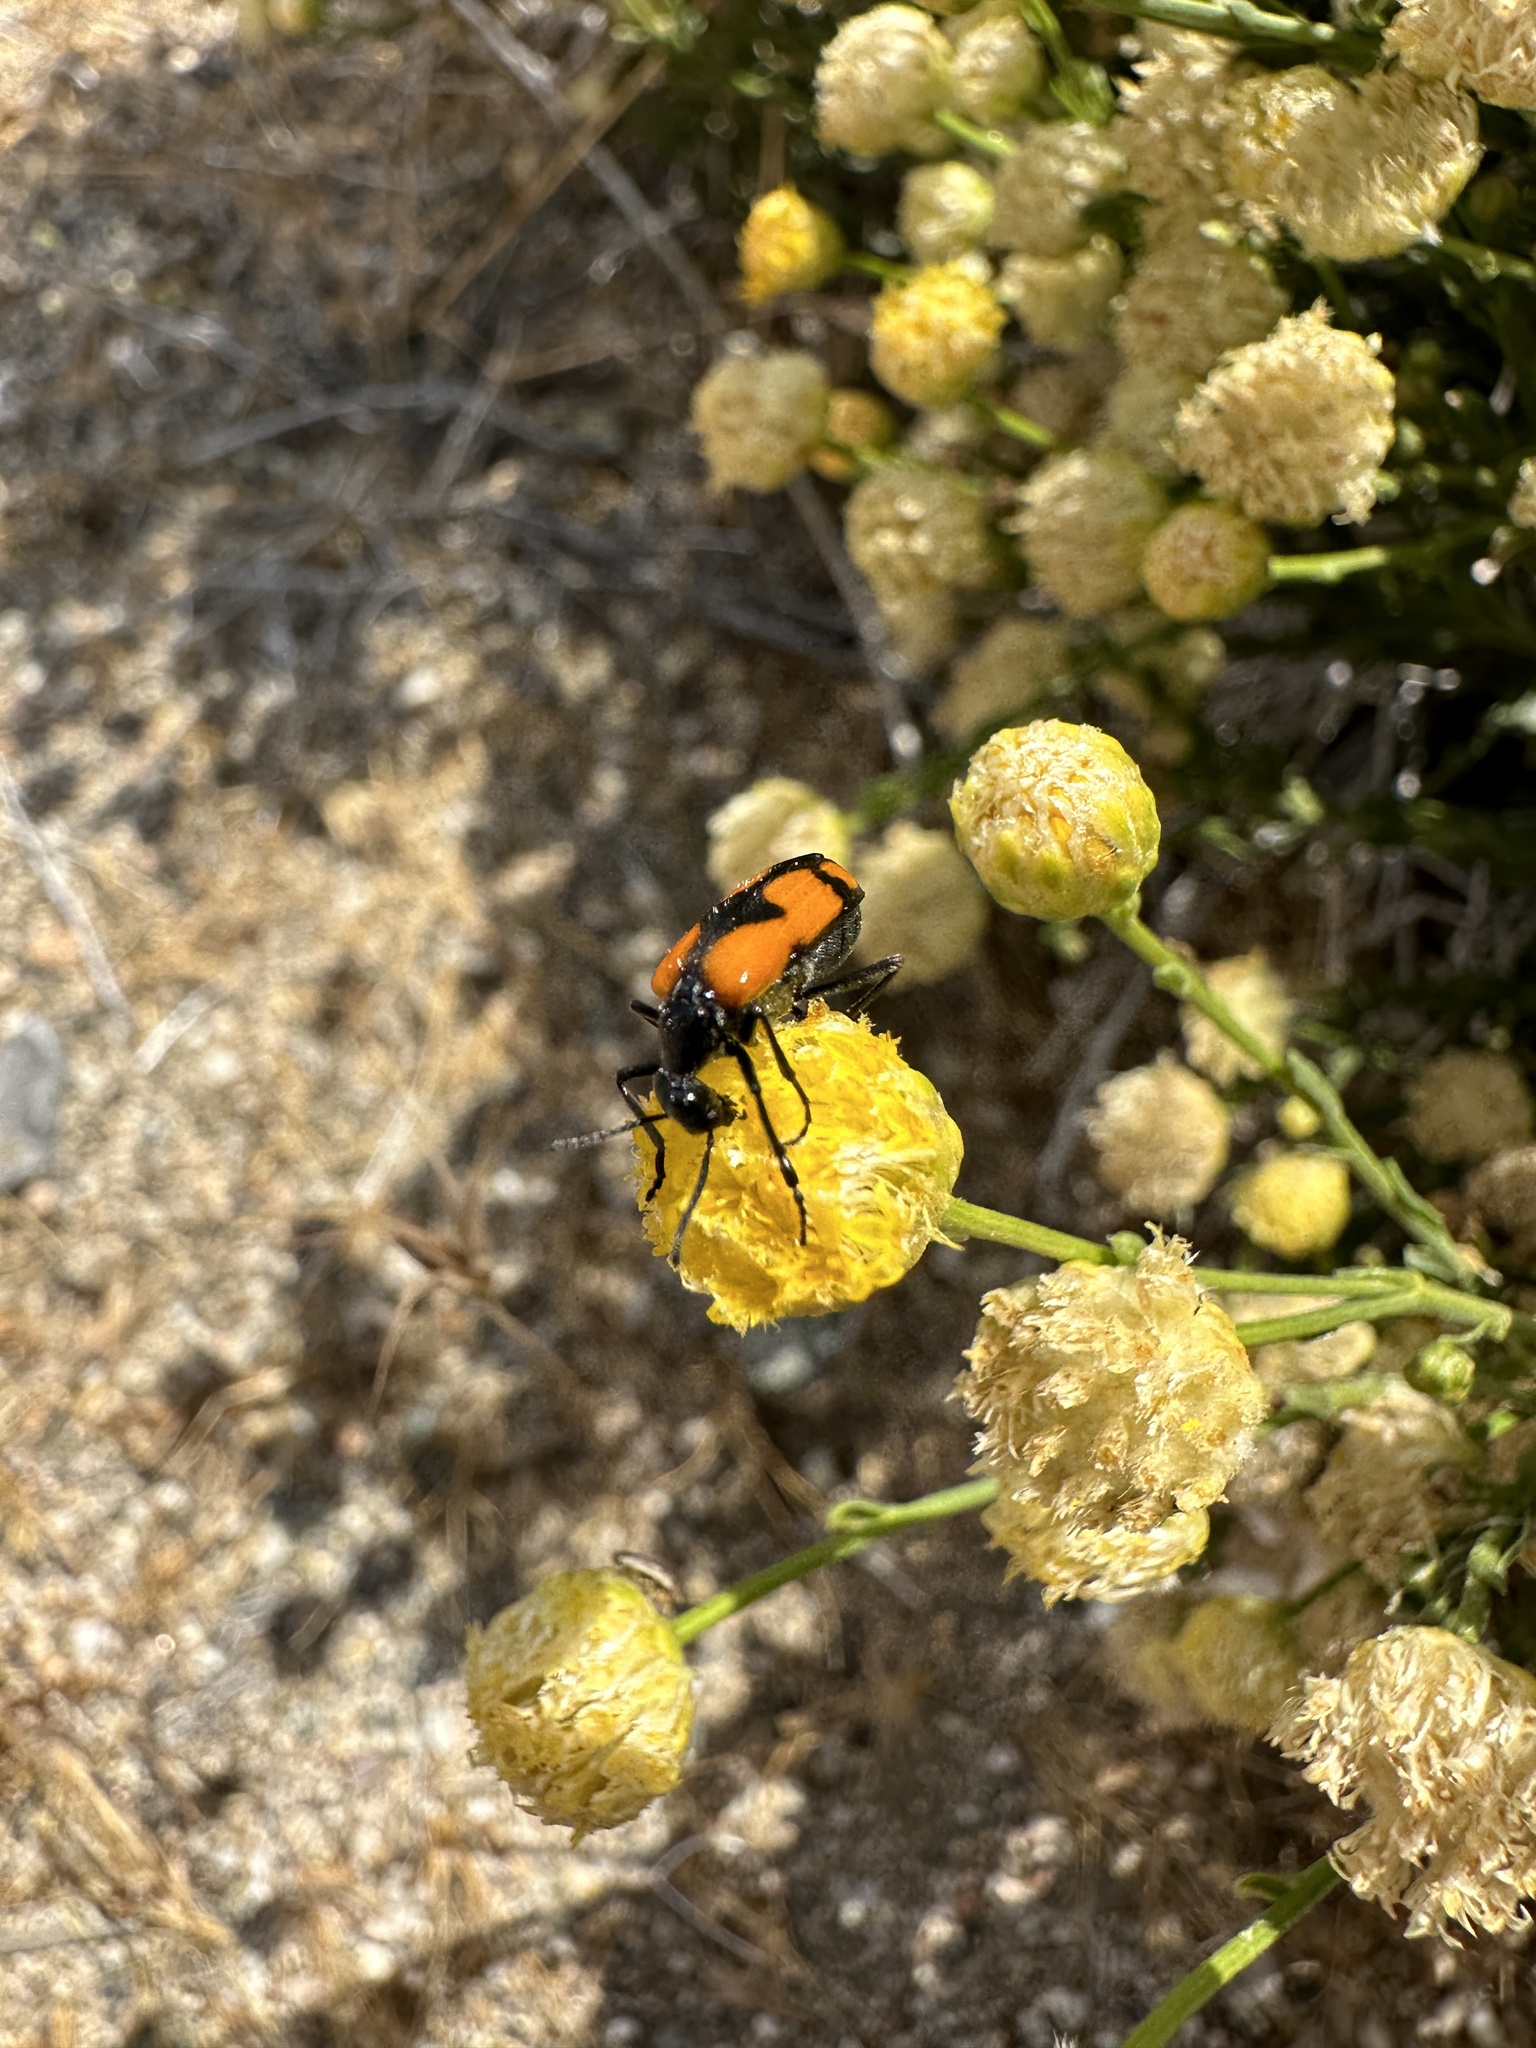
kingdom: Animalia
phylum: Arthropoda
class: Insecta
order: Coleoptera
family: Meloidae
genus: Eupompha
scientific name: Eupompha elegans
